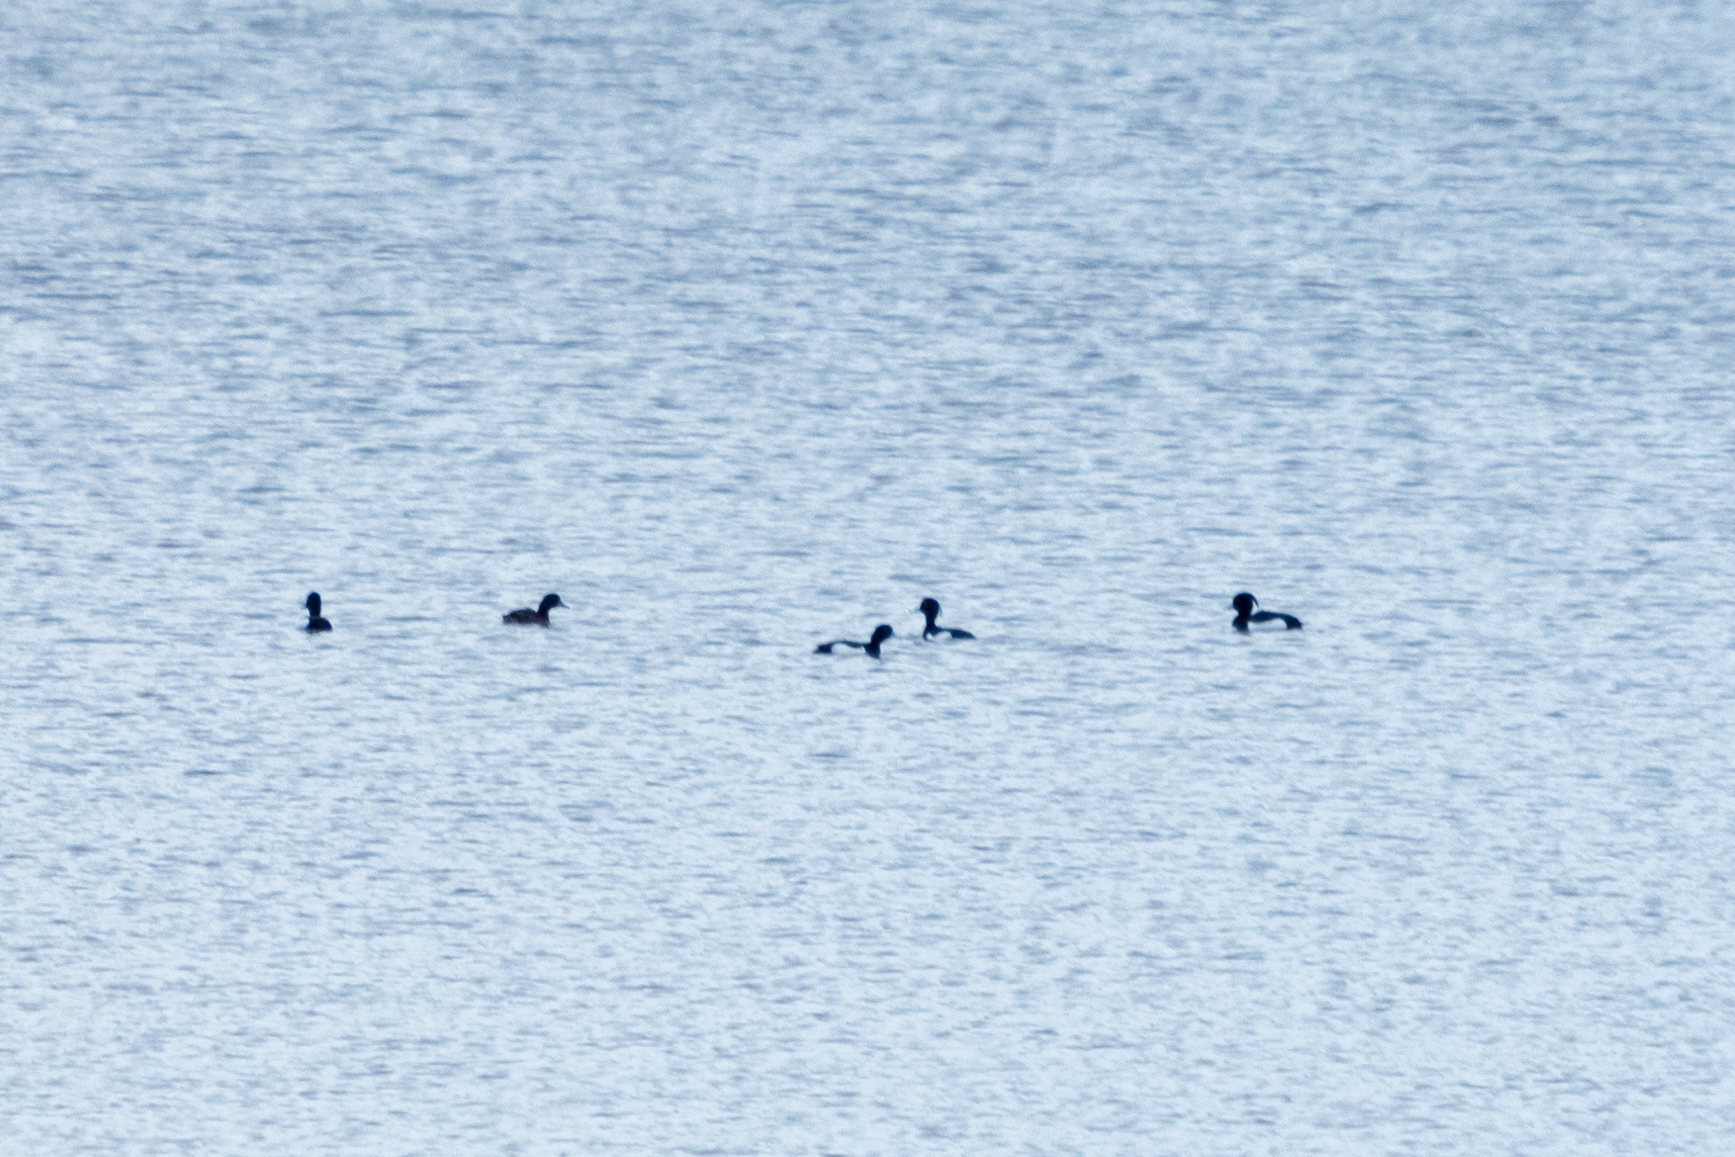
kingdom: Animalia
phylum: Chordata
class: Aves
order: Anseriformes
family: Anatidae
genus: Aythya
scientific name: Aythya fuligula
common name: Tufted duck
